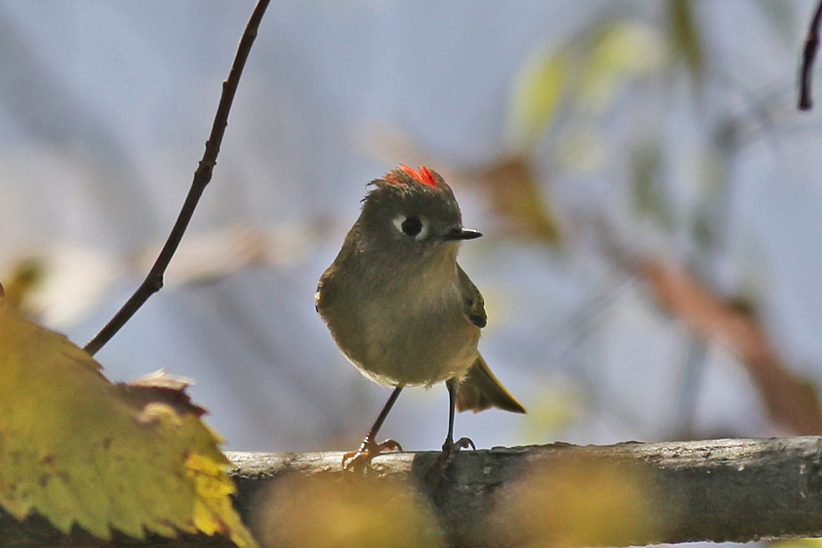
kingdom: Animalia
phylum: Chordata
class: Aves
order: Passeriformes
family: Regulidae
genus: Regulus
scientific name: Regulus calendula
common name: Ruby-crowned kinglet
